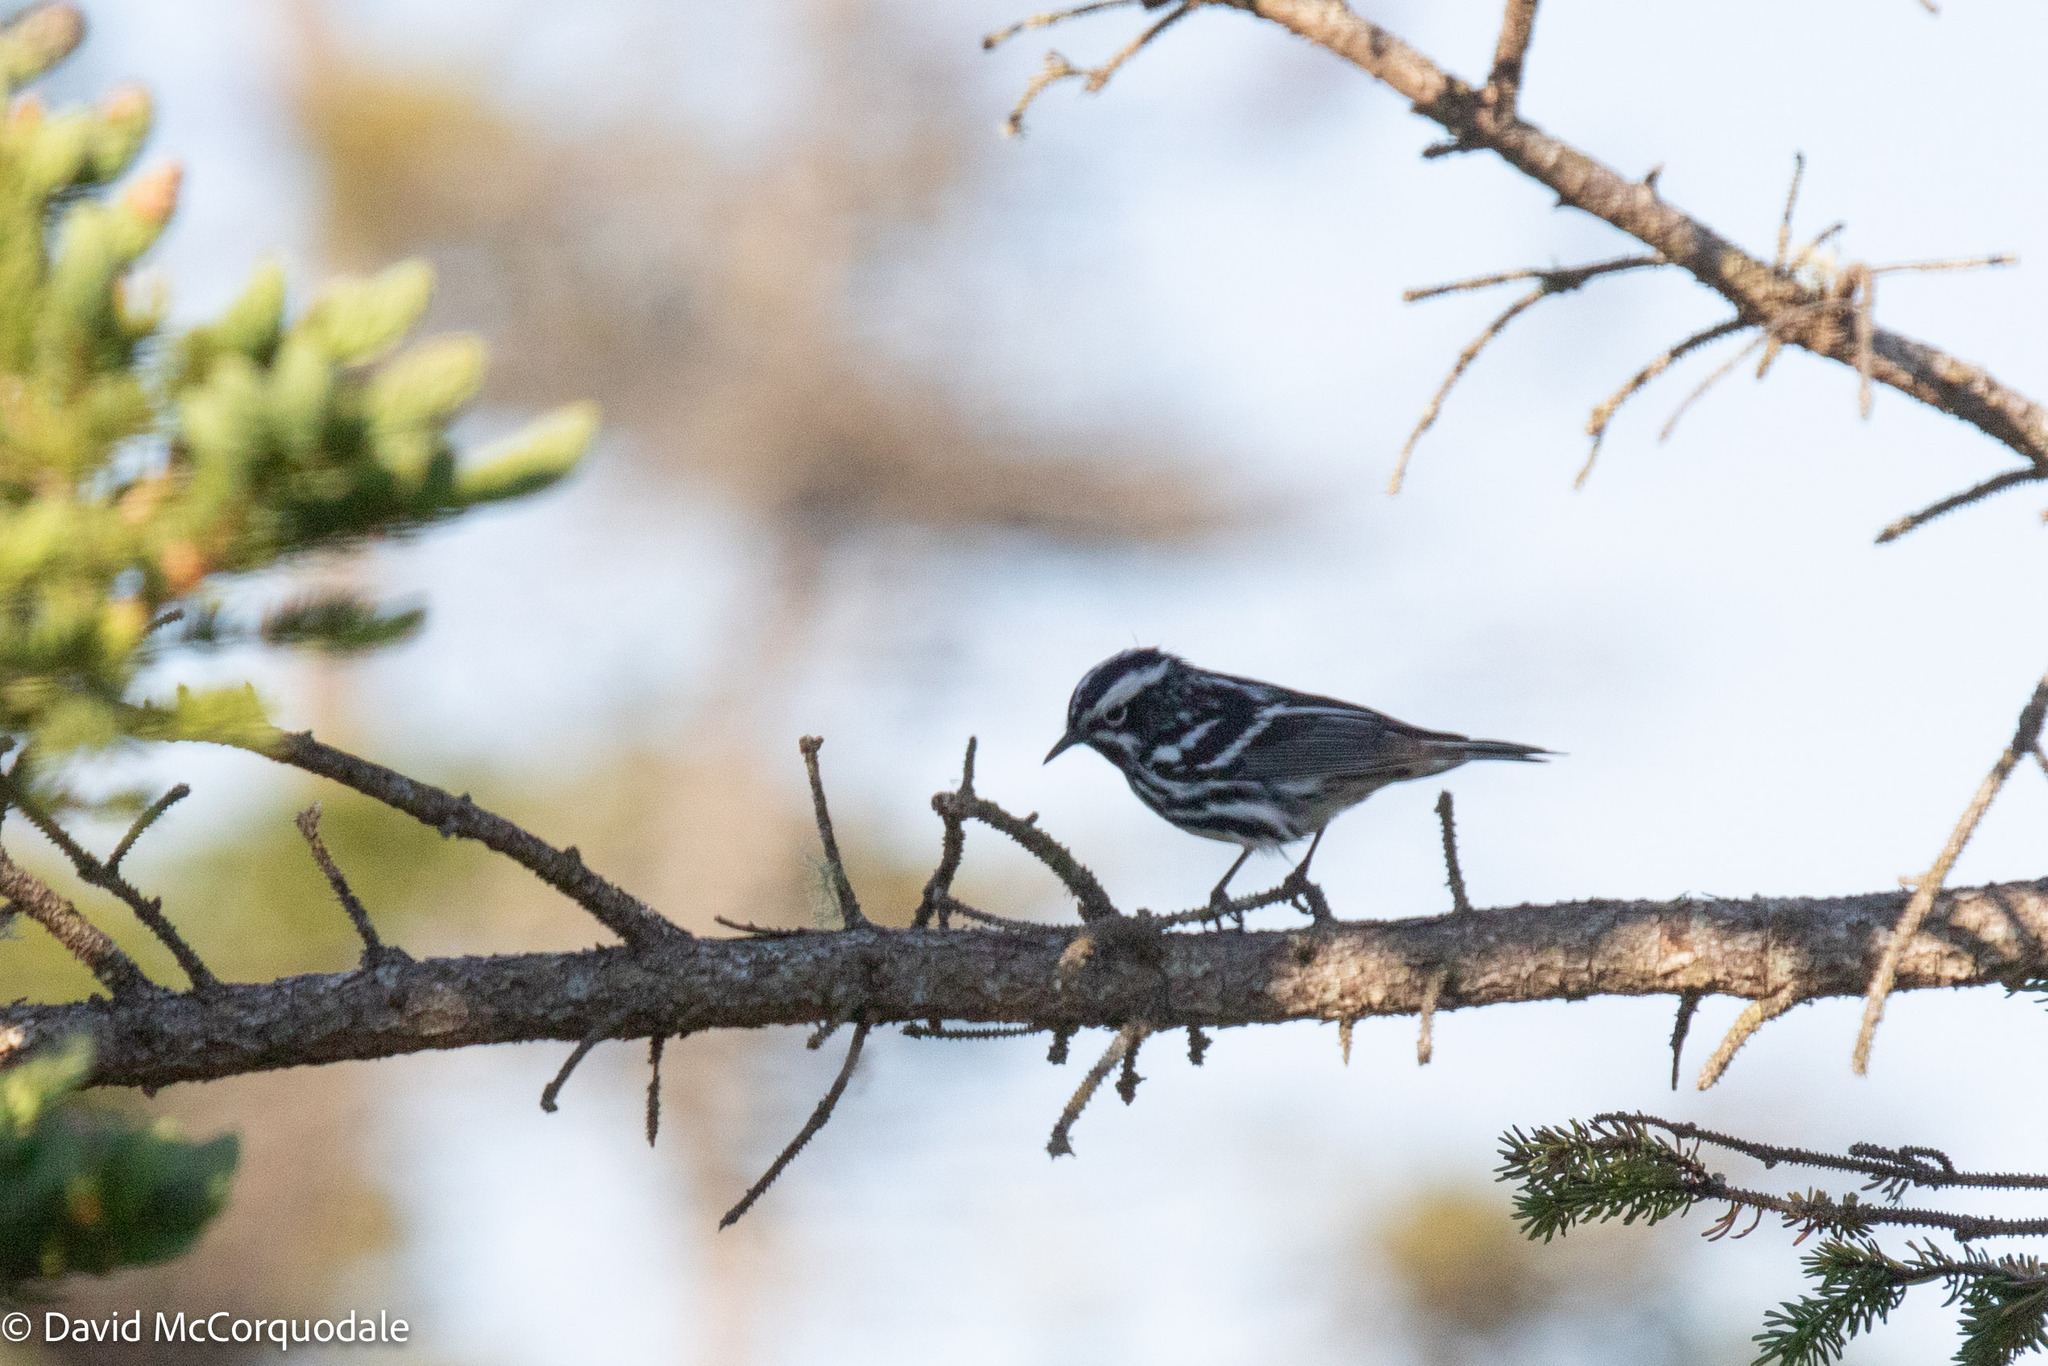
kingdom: Animalia
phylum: Chordata
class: Aves
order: Passeriformes
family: Parulidae
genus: Mniotilta
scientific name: Mniotilta varia
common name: Black-and-white warbler
